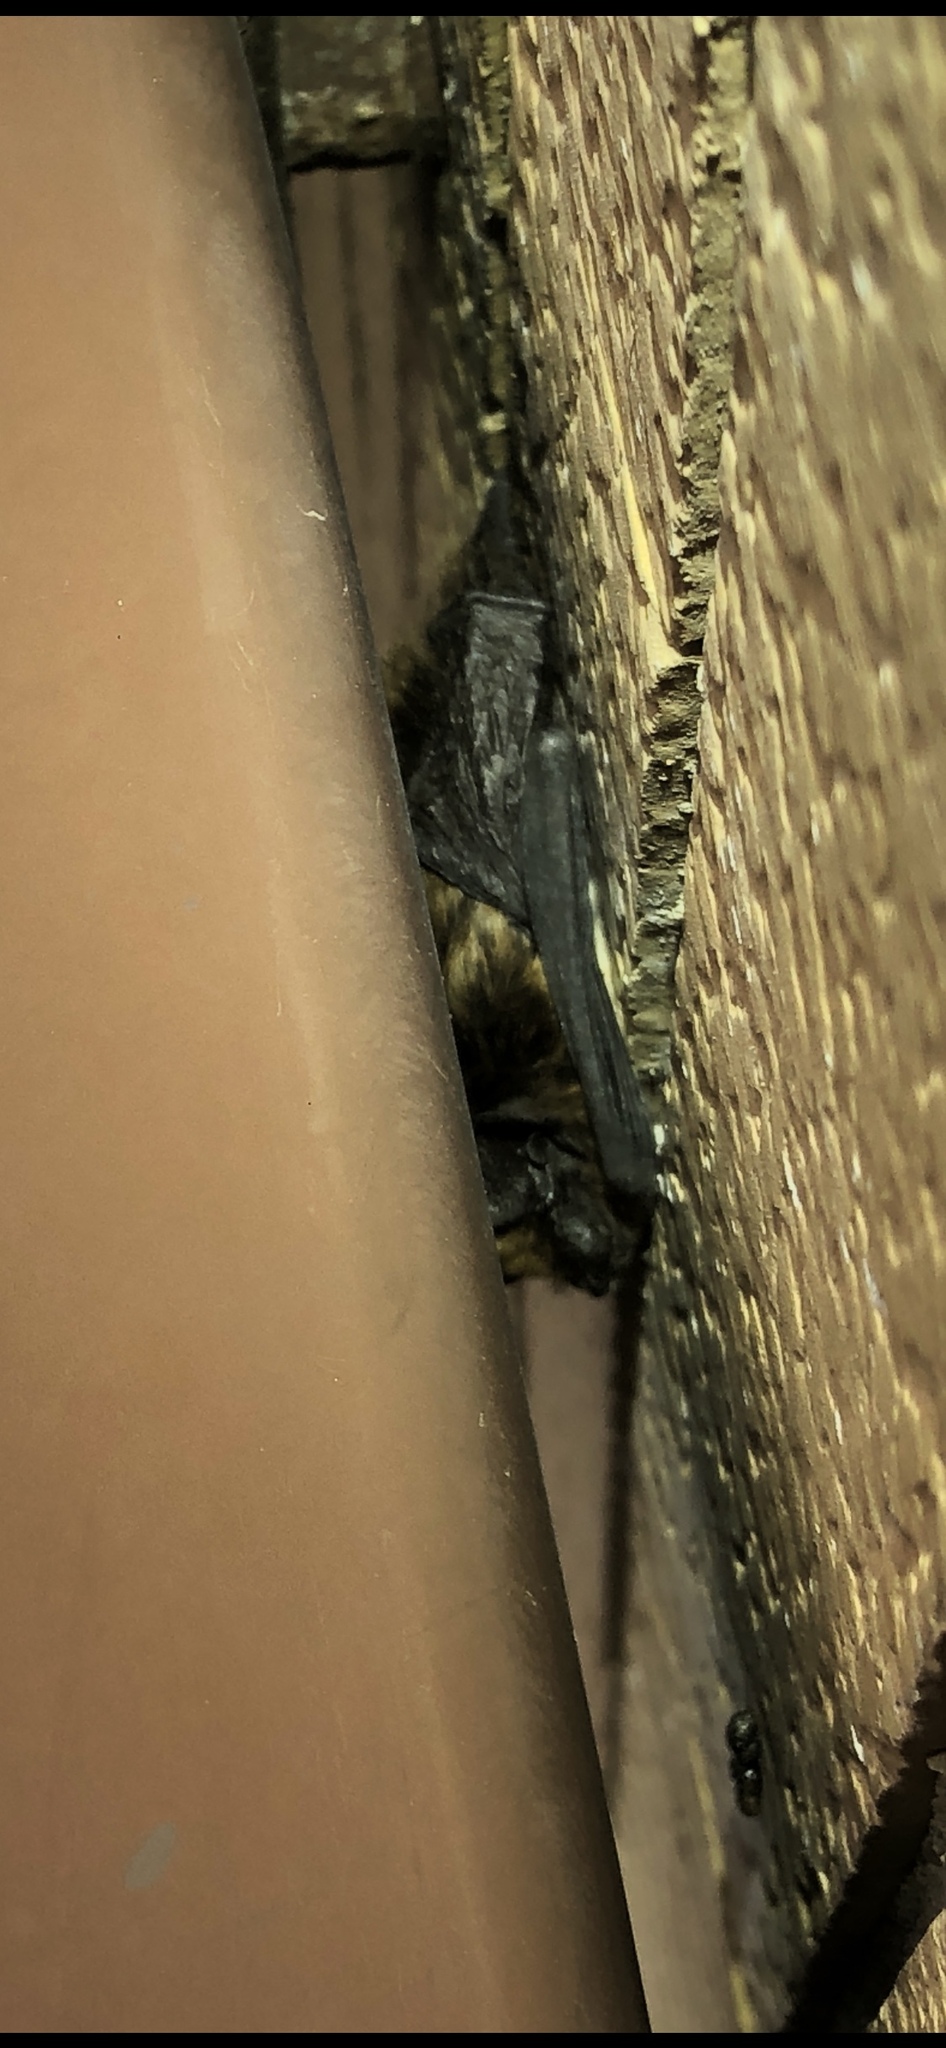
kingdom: Animalia
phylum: Chordata
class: Mammalia
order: Chiroptera
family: Vespertilionidae
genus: Hypsugo
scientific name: Hypsugo savii
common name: Savi's pipistrelle
